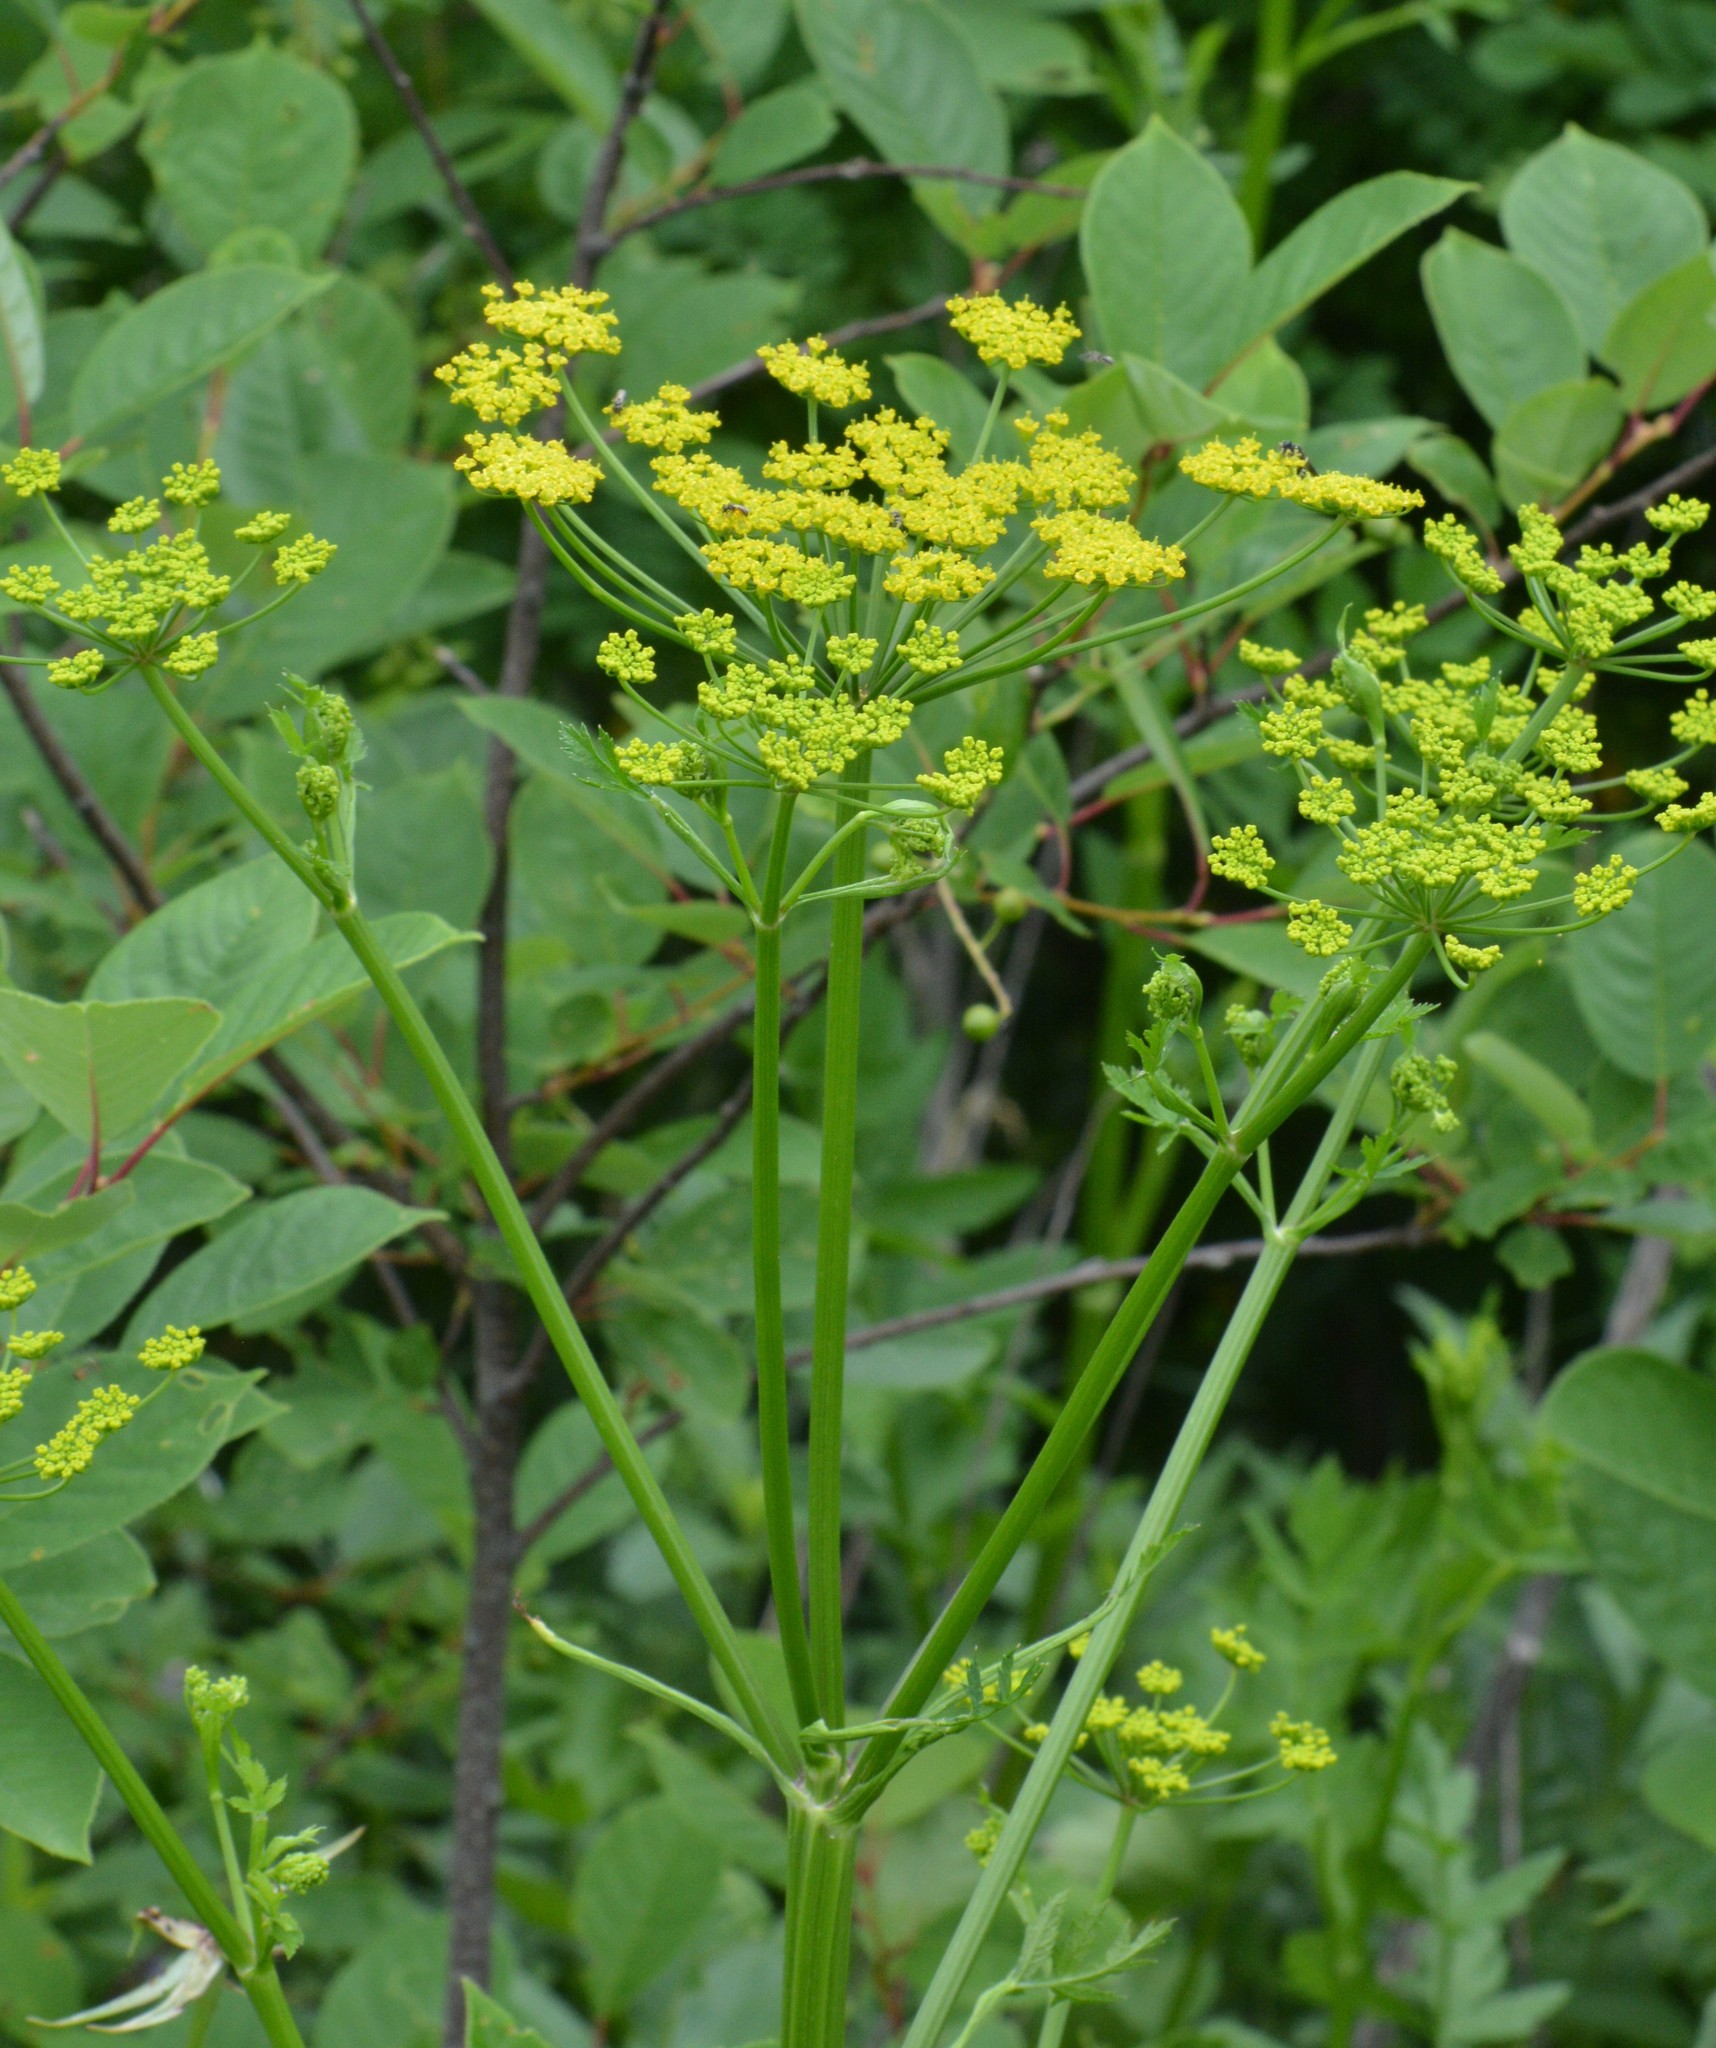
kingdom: Plantae
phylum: Tracheophyta
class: Magnoliopsida
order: Apiales
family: Apiaceae
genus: Pastinaca
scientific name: Pastinaca sativa
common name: Wild parsnip
